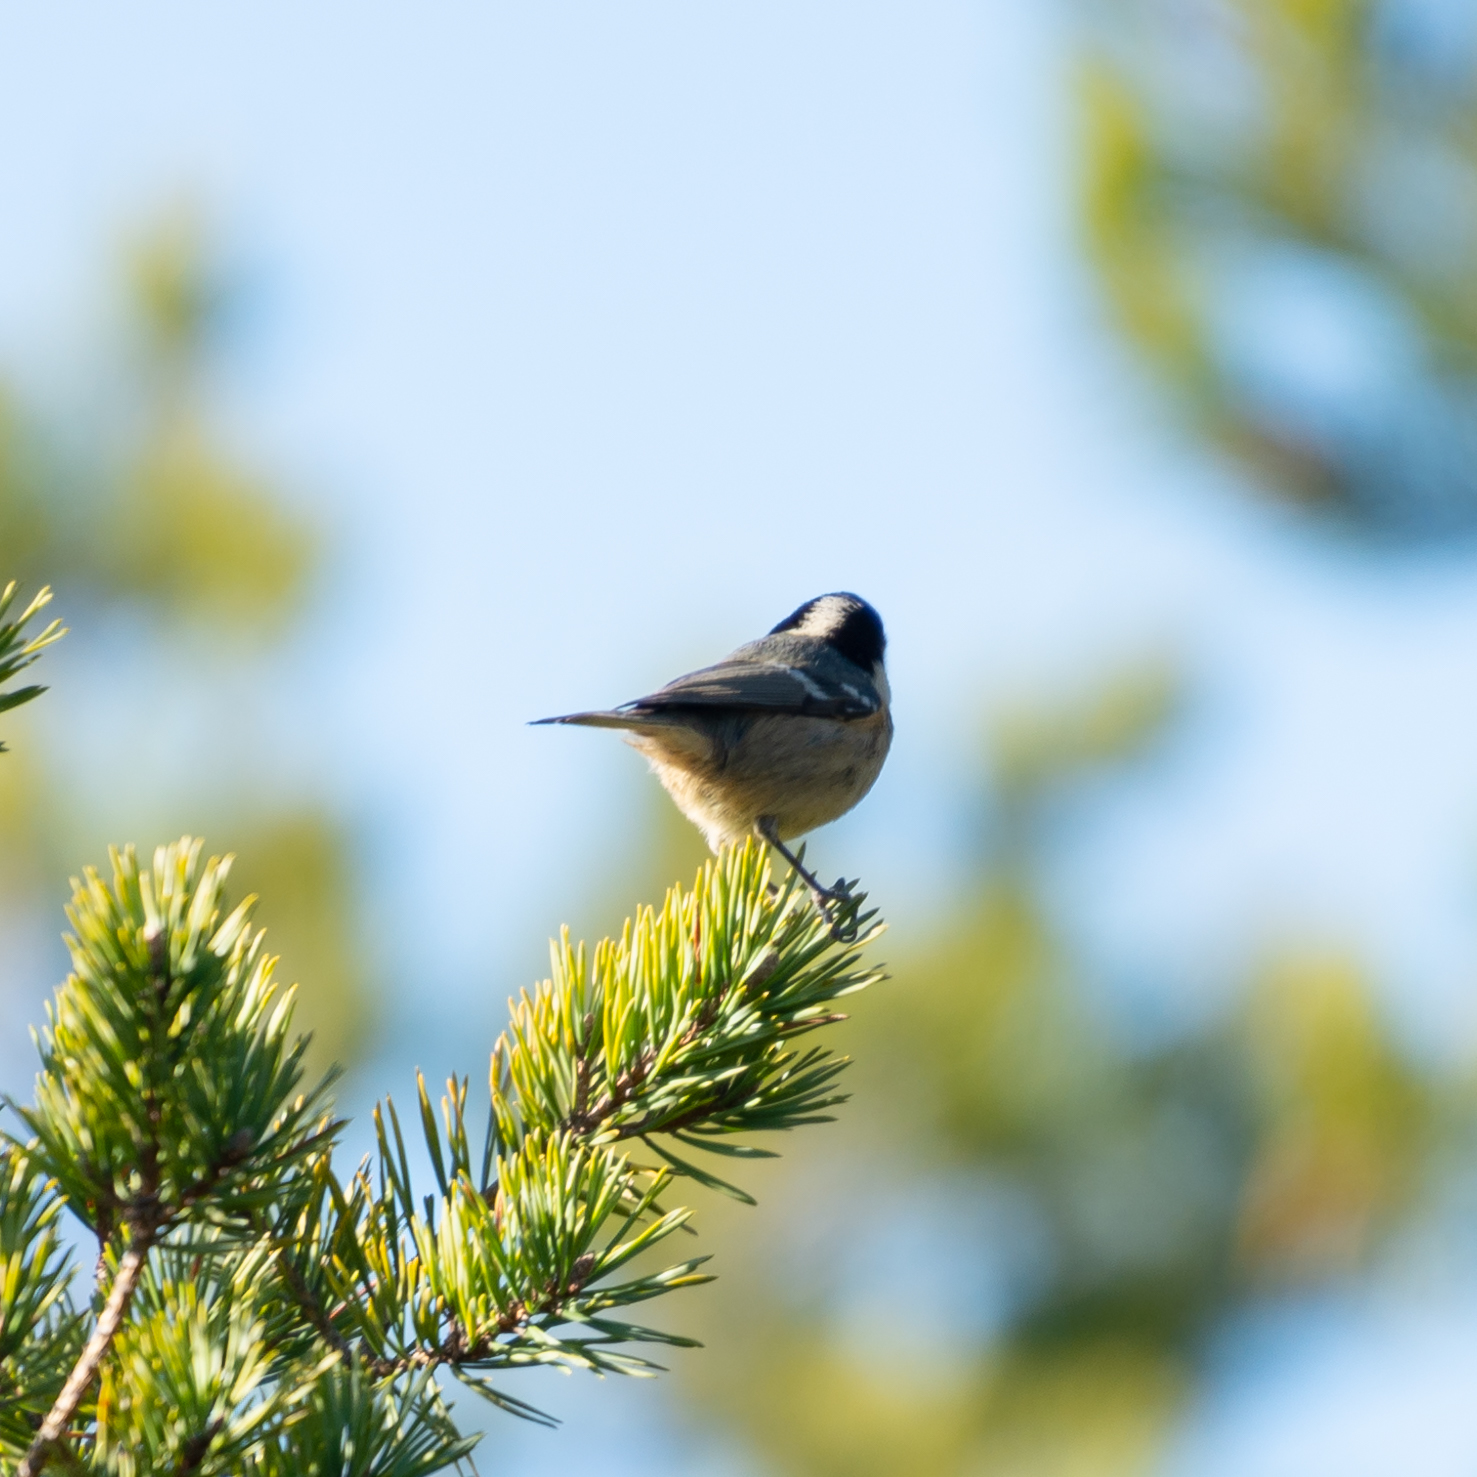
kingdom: Animalia
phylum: Chordata
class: Aves
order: Passeriformes
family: Paridae
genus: Periparus
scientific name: Periparus ater
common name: Coal tit
